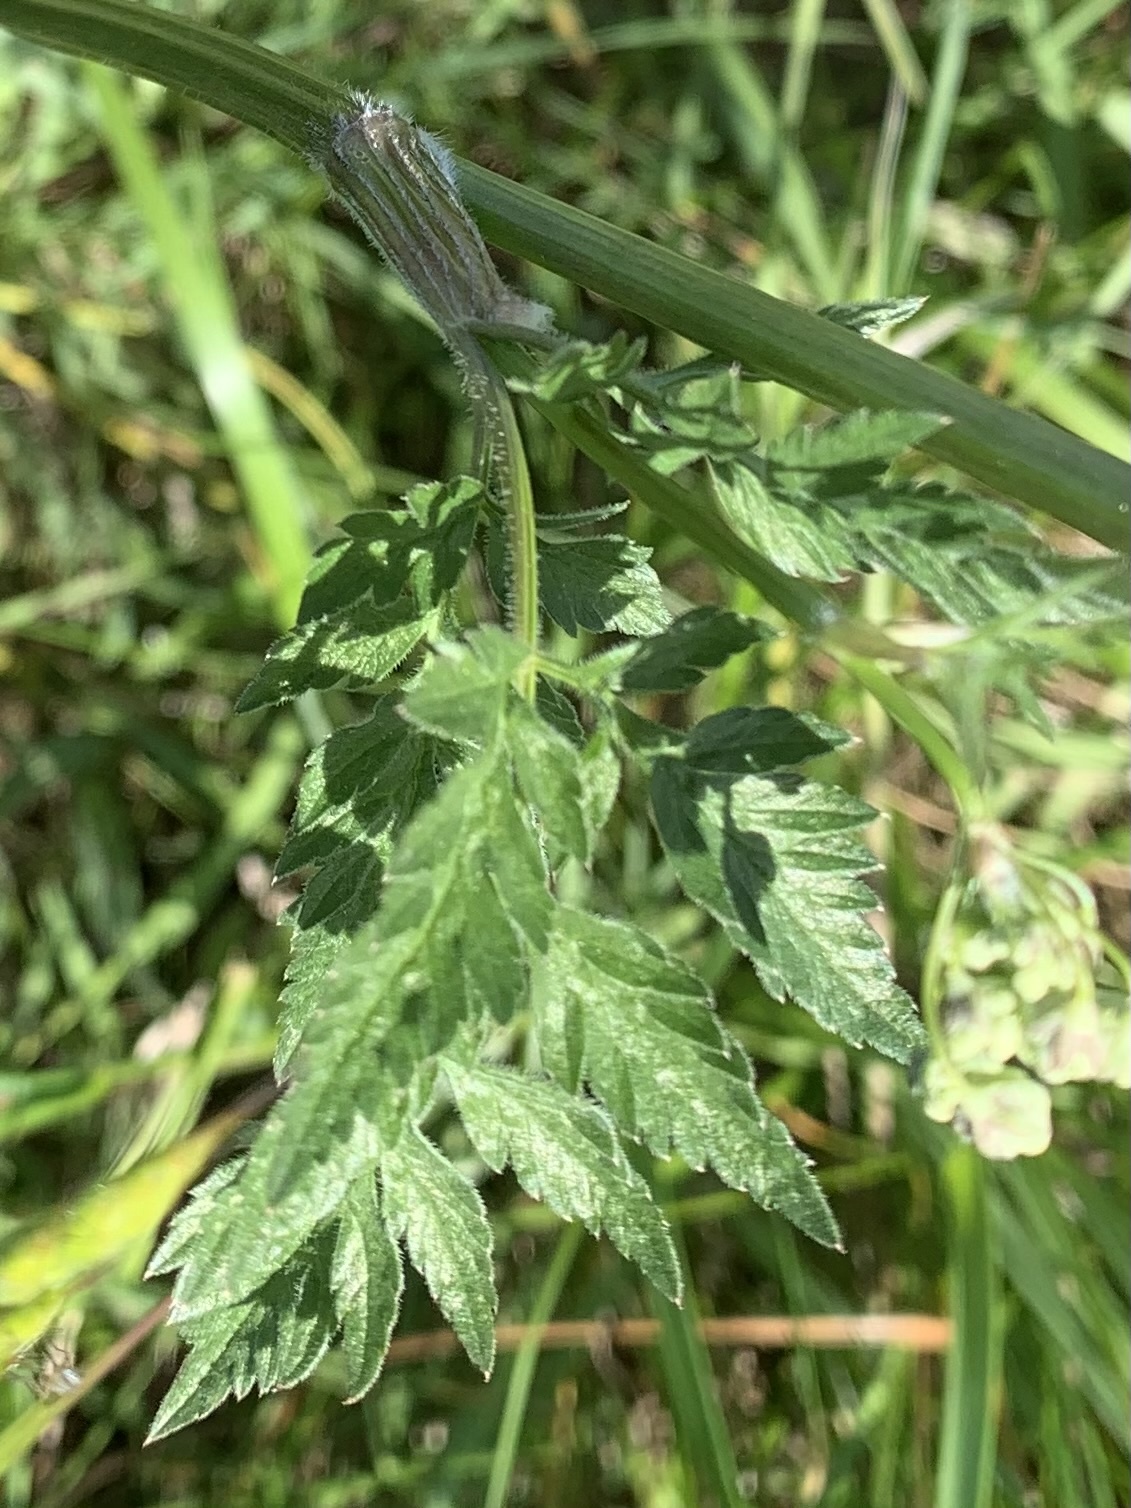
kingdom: Plantae
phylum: Tracheophyta
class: Magnoliopsida
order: Apiales
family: Apiaceae
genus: Anthriscus
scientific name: Anthriscus sylvestris
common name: Cow parsley
